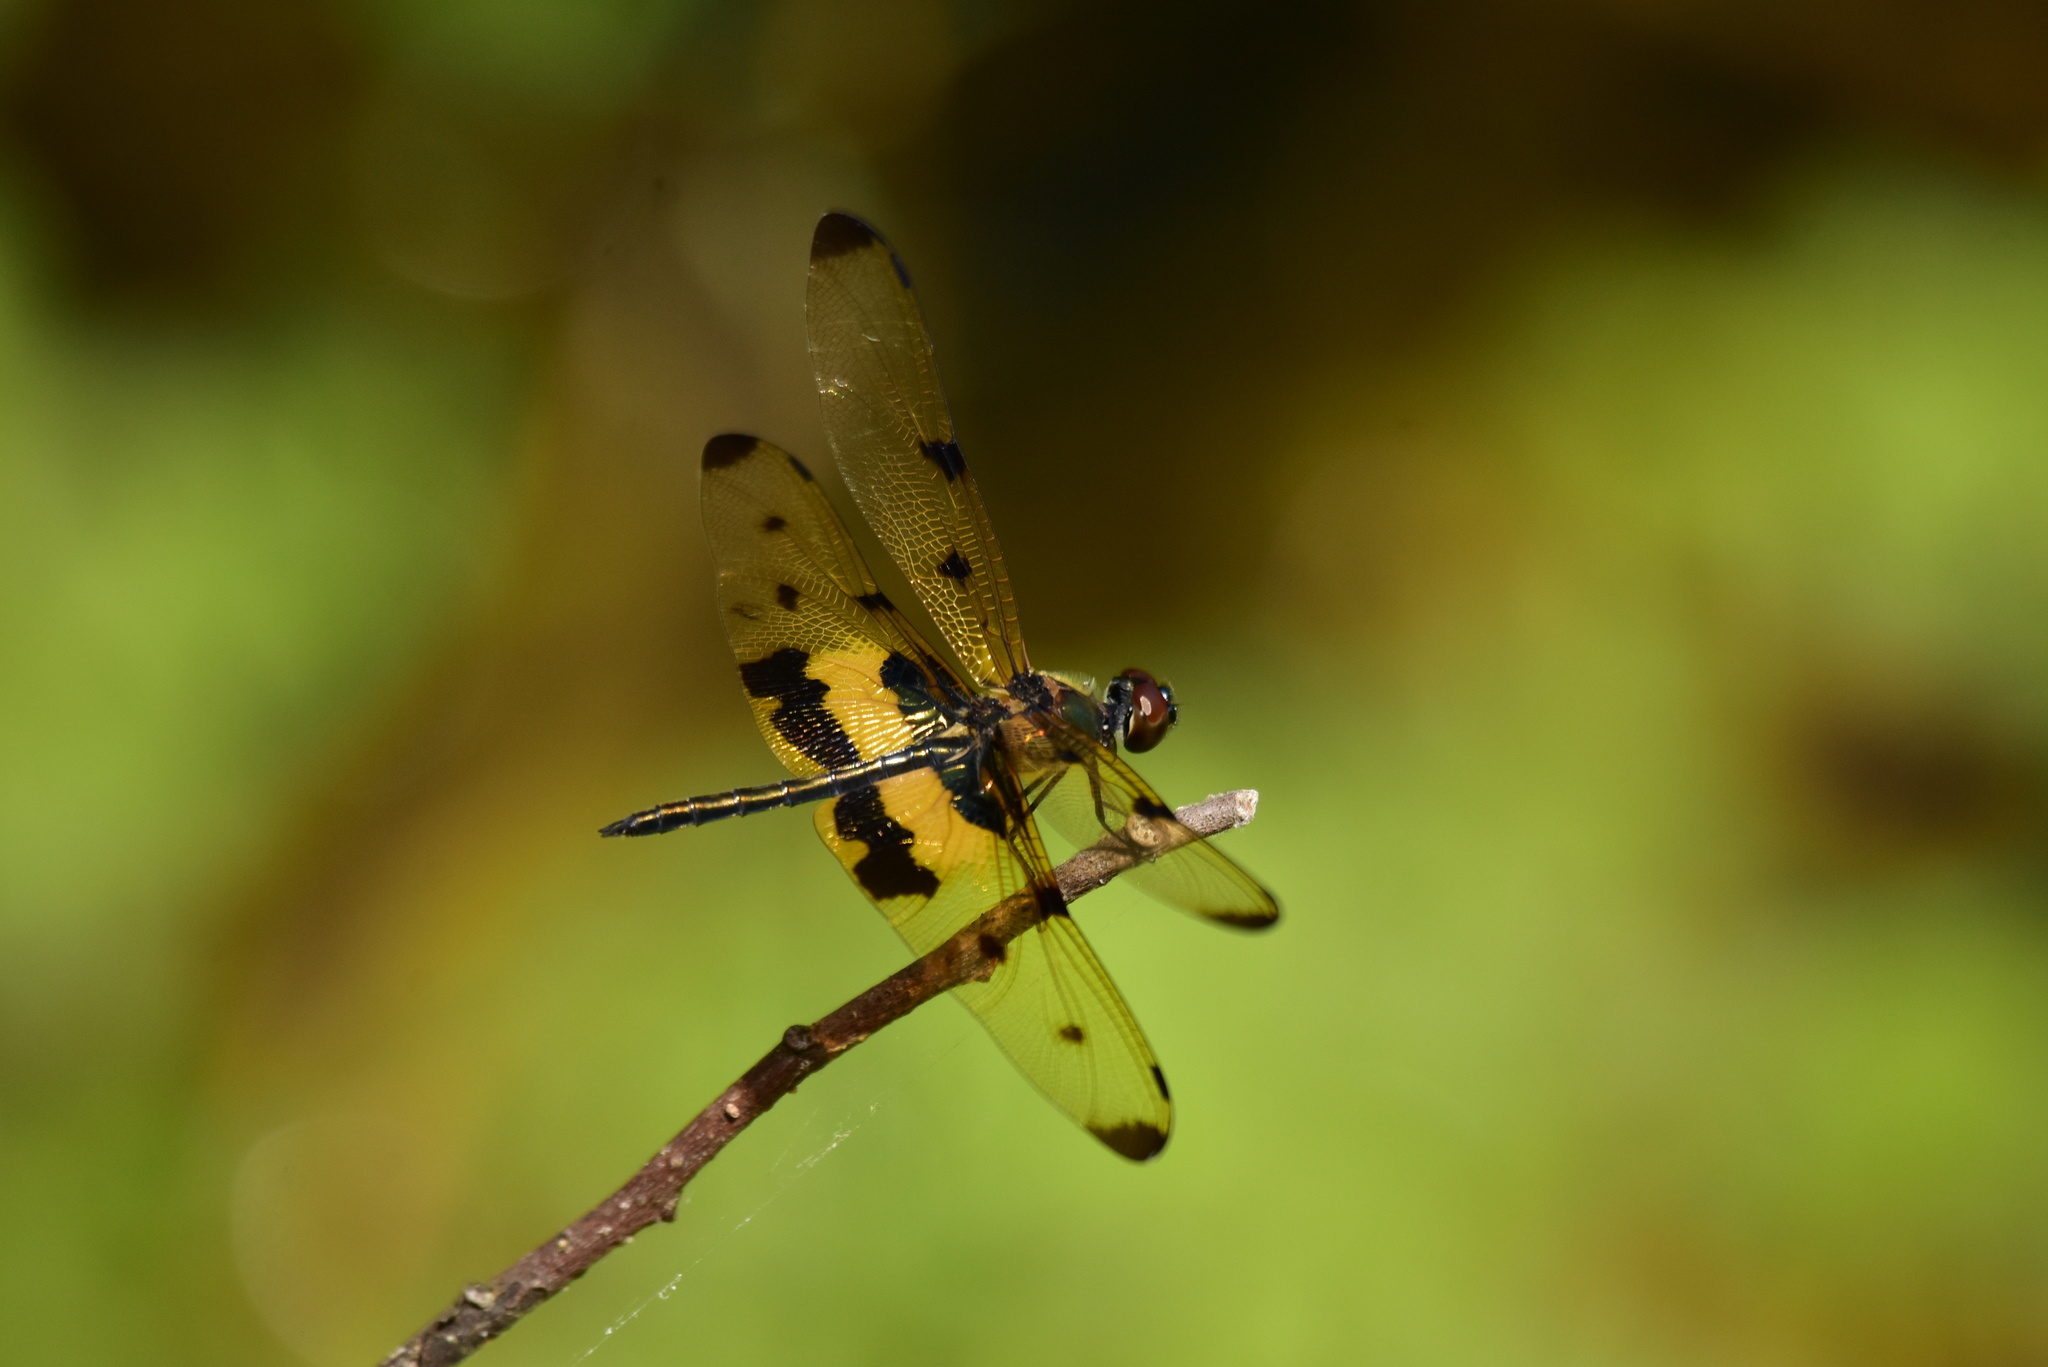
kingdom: Animalia
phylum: Arthropoda
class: Insecta
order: Odonata
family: Libellulidae
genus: Rhyothemis
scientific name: Rhyothemis variegata
